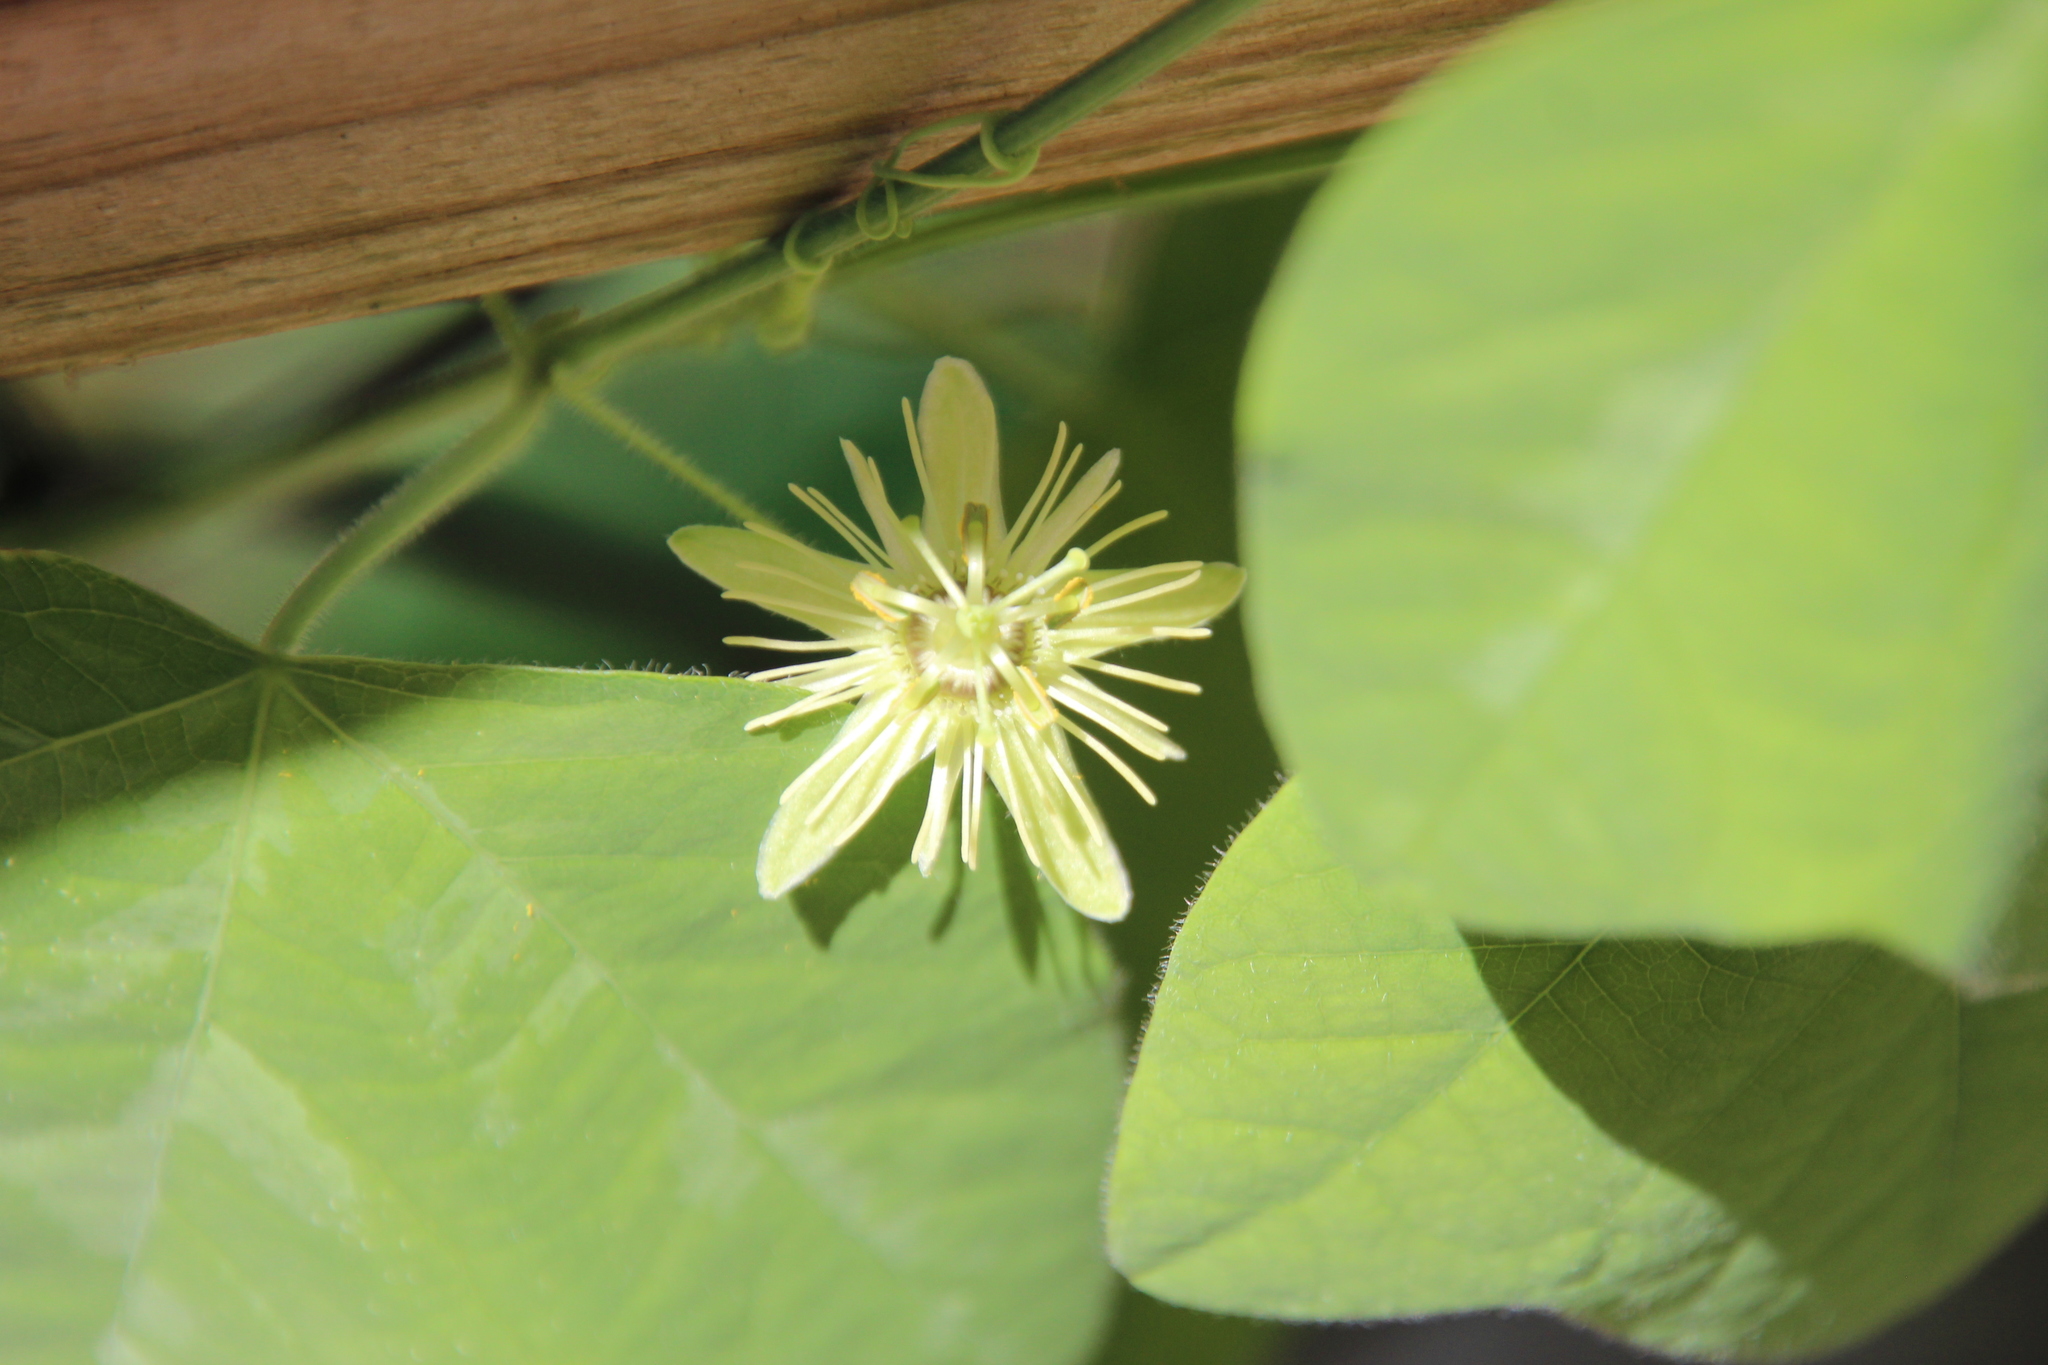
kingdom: Plantae
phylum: Tracheophyta
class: Magnoliopsida
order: Malpighiales
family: Passifloraceae
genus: Passiflora
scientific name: Passiflora lutea
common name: Yellow passionflower
